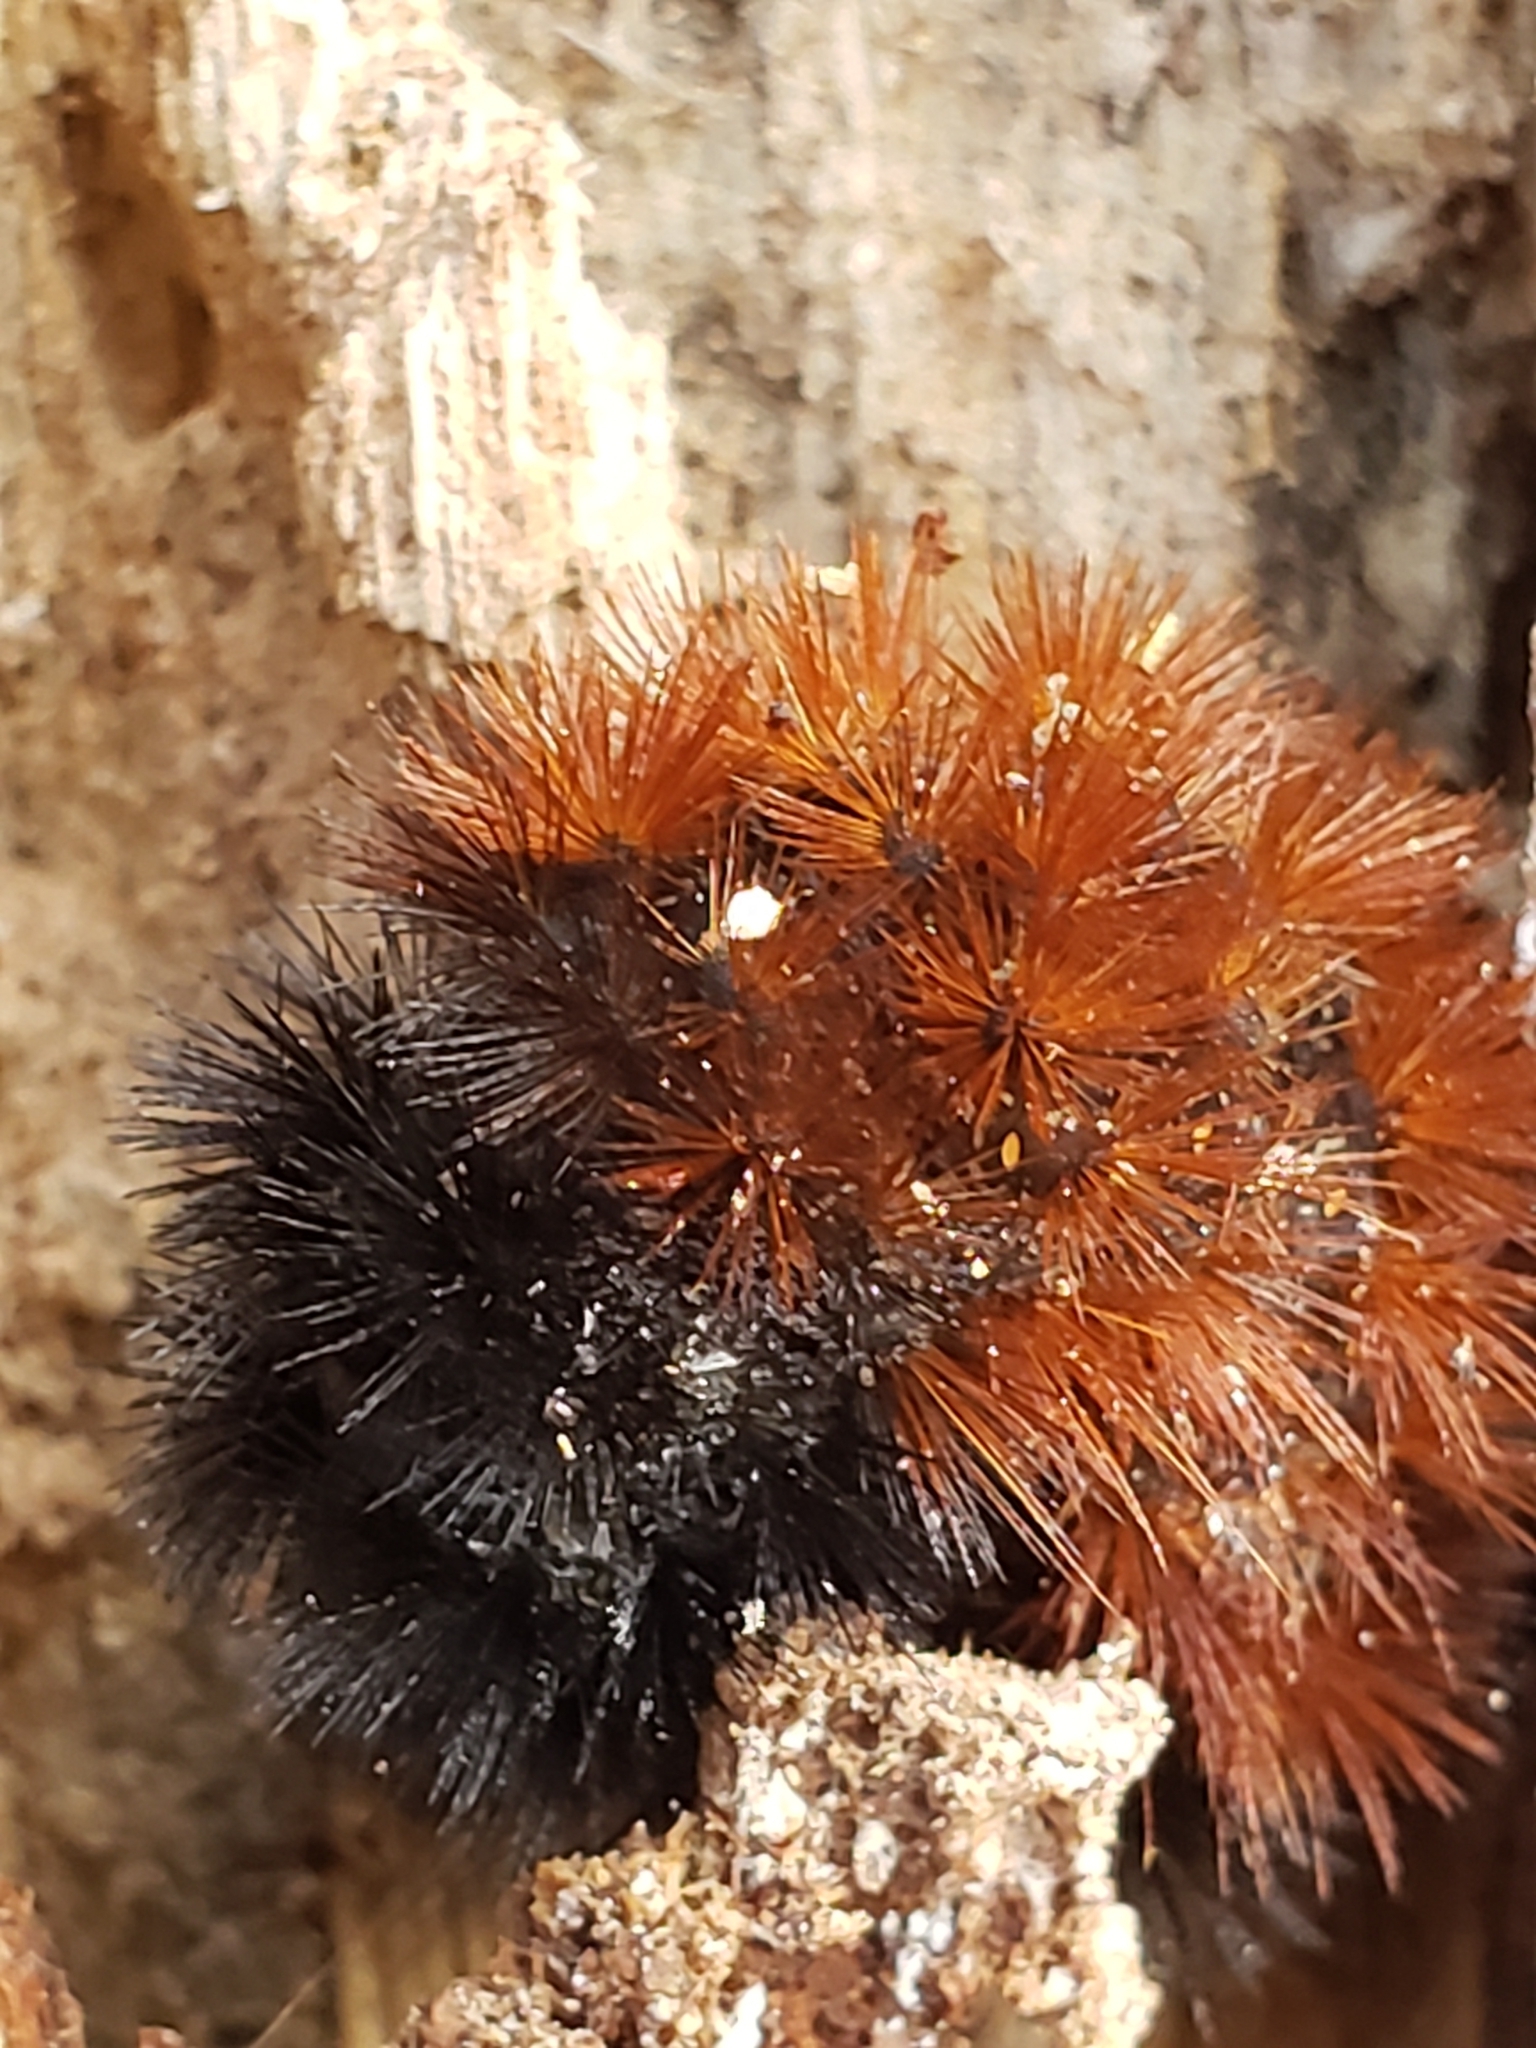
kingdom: Animalia
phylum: Arthropoda
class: Insecta
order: Lepidoptera
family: Erebidae
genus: Pyrrharctia
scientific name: Pyrrharctia isabella
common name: Isabella tiger moth
